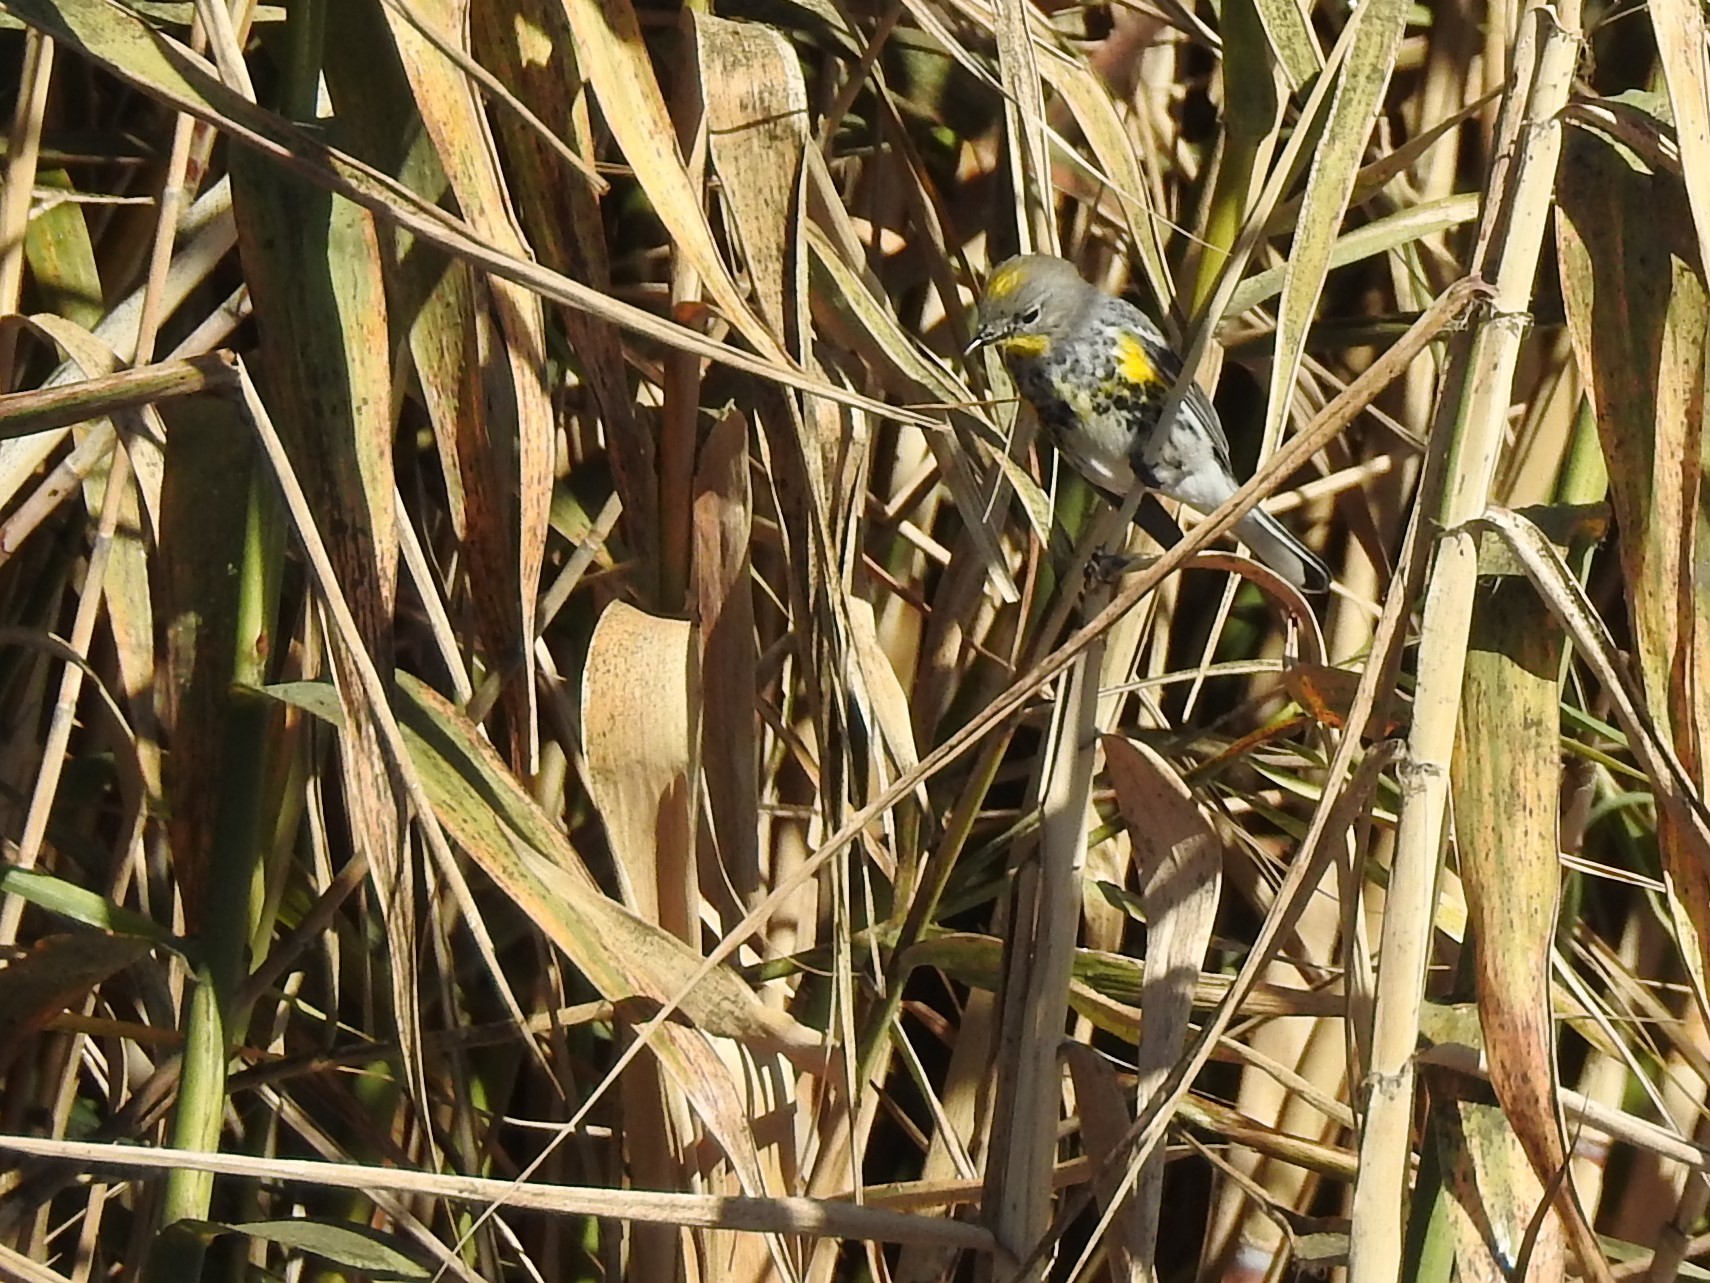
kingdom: Animalia
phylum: Chordata
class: Aves
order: Passeriformes
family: Parulidae
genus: Setophaga
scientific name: Setophaga coronata
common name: Myrtle warbler
